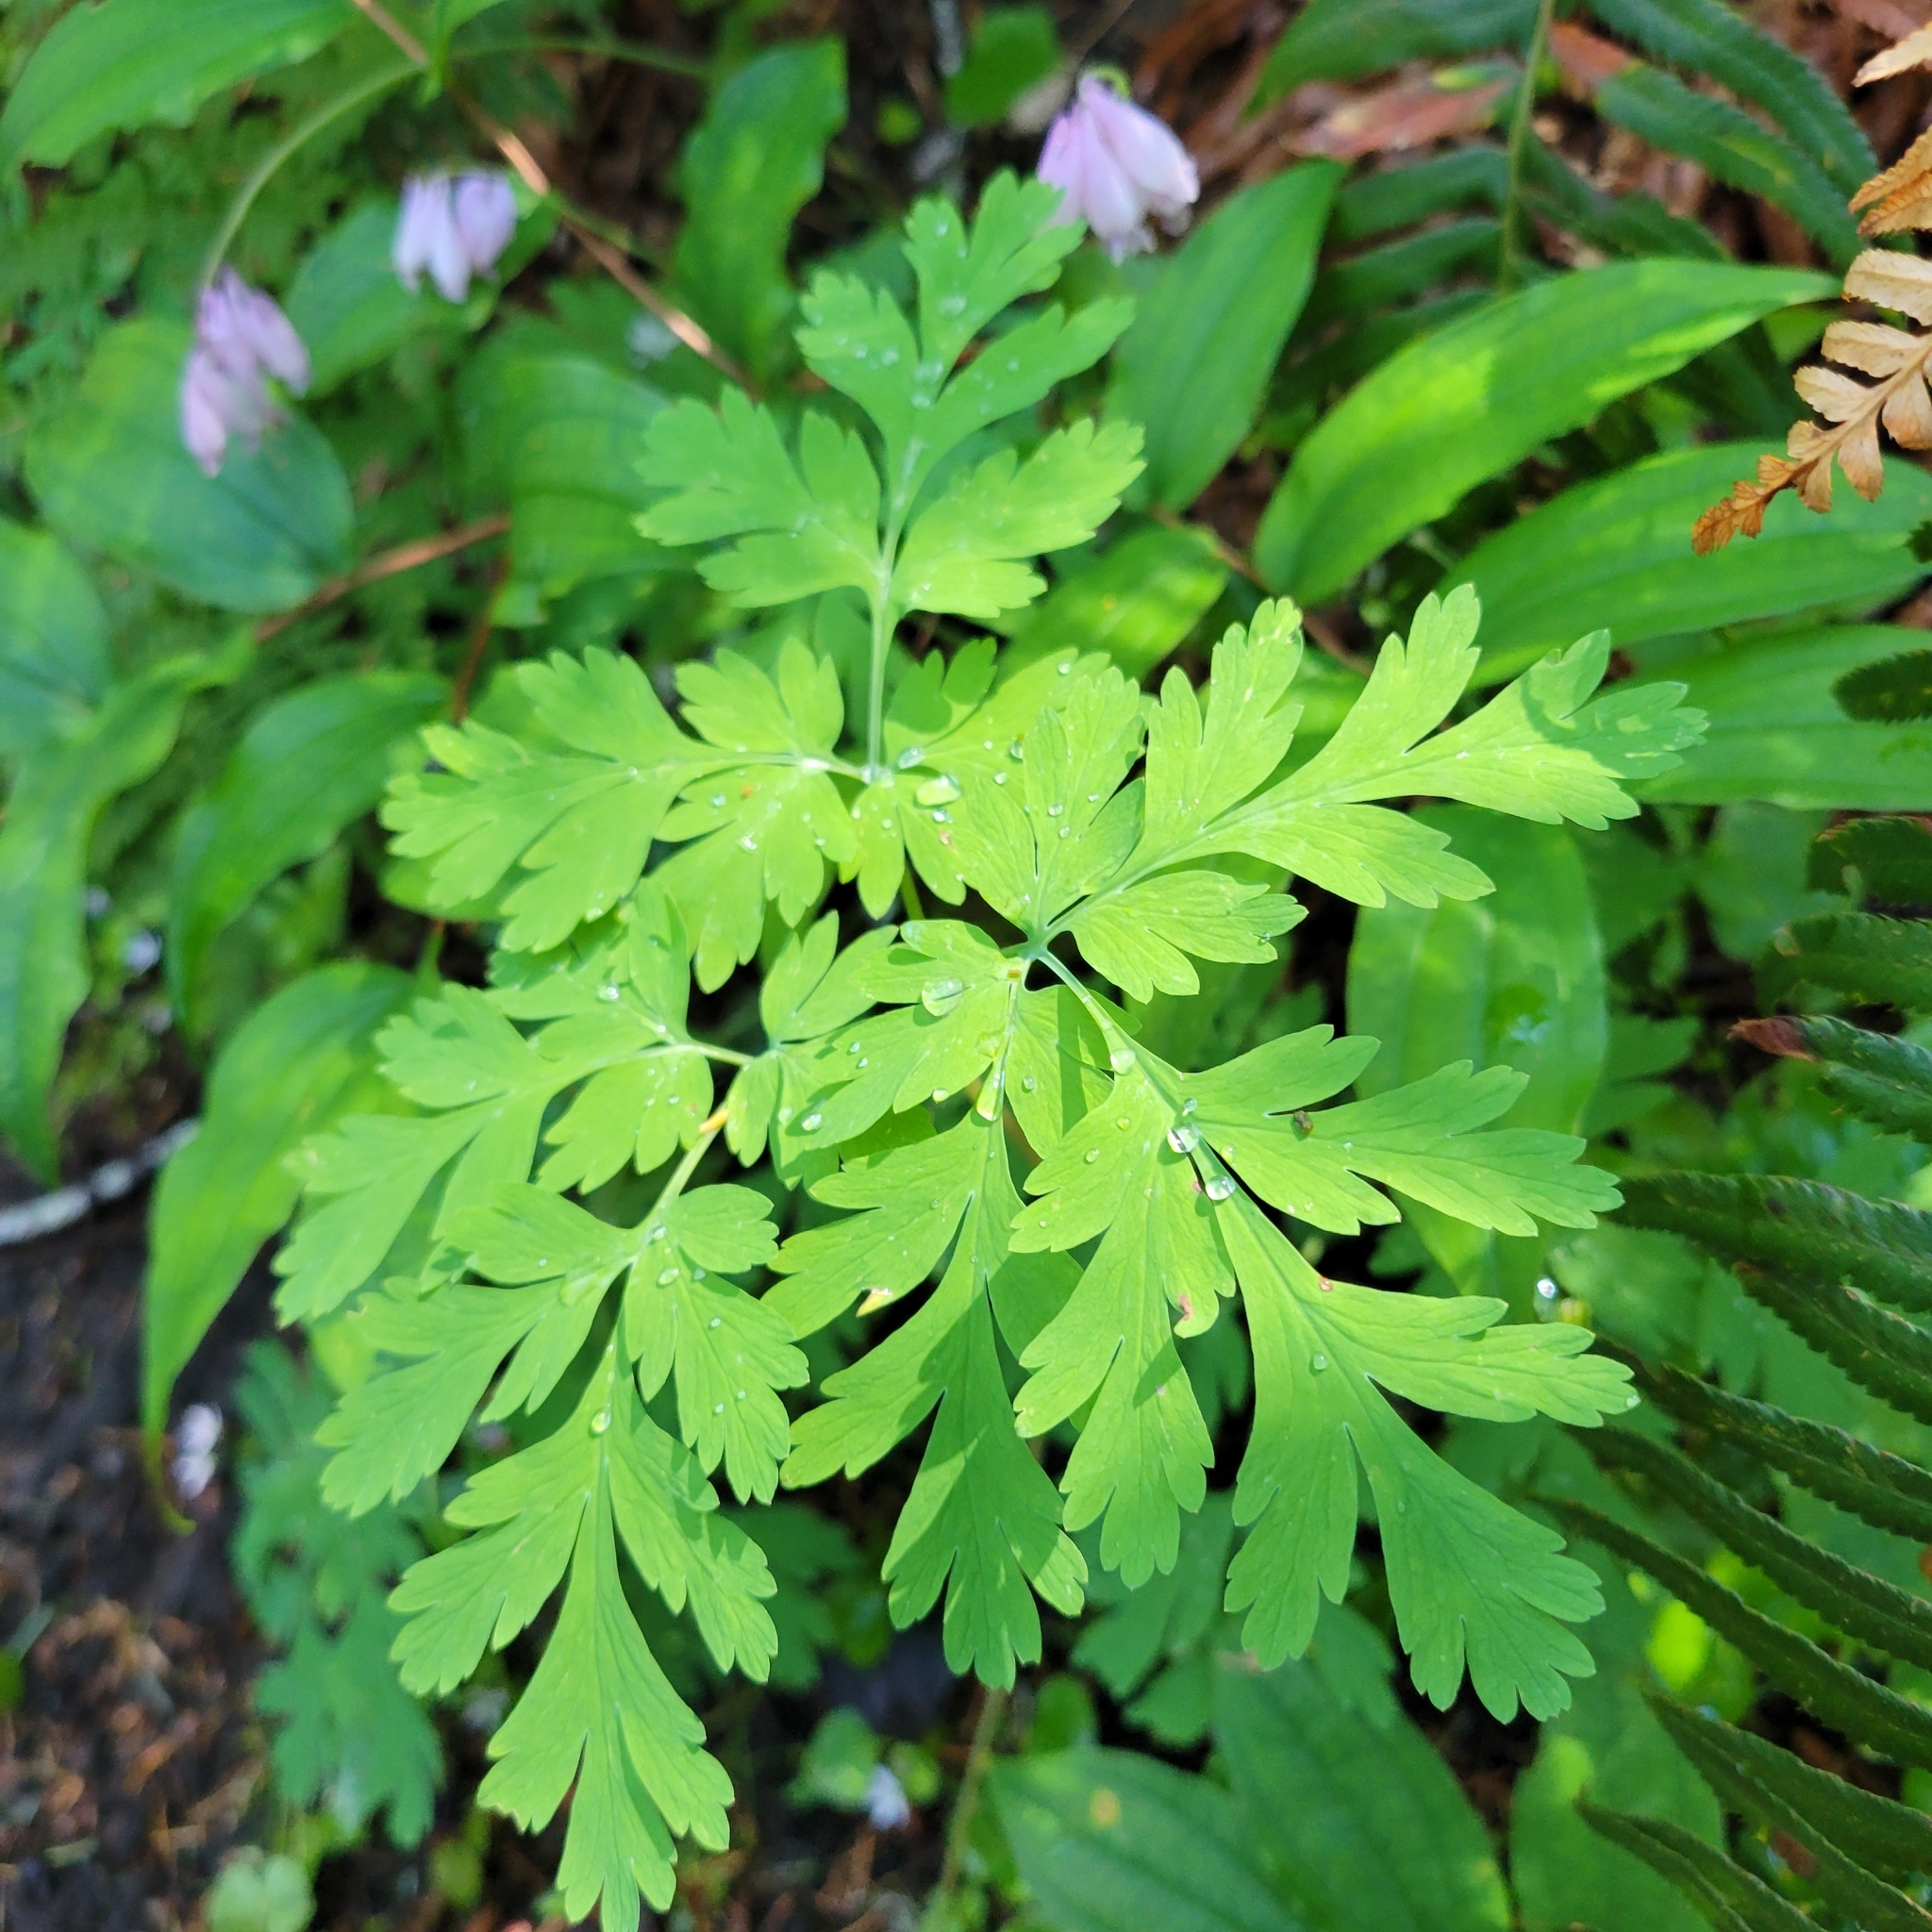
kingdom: Plantae
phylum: Tracheophyta
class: Magnoliopsida
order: Ranunculales
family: Papaveraceae
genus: Dicentra
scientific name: Dicentra formosa
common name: Bleeding-heart
